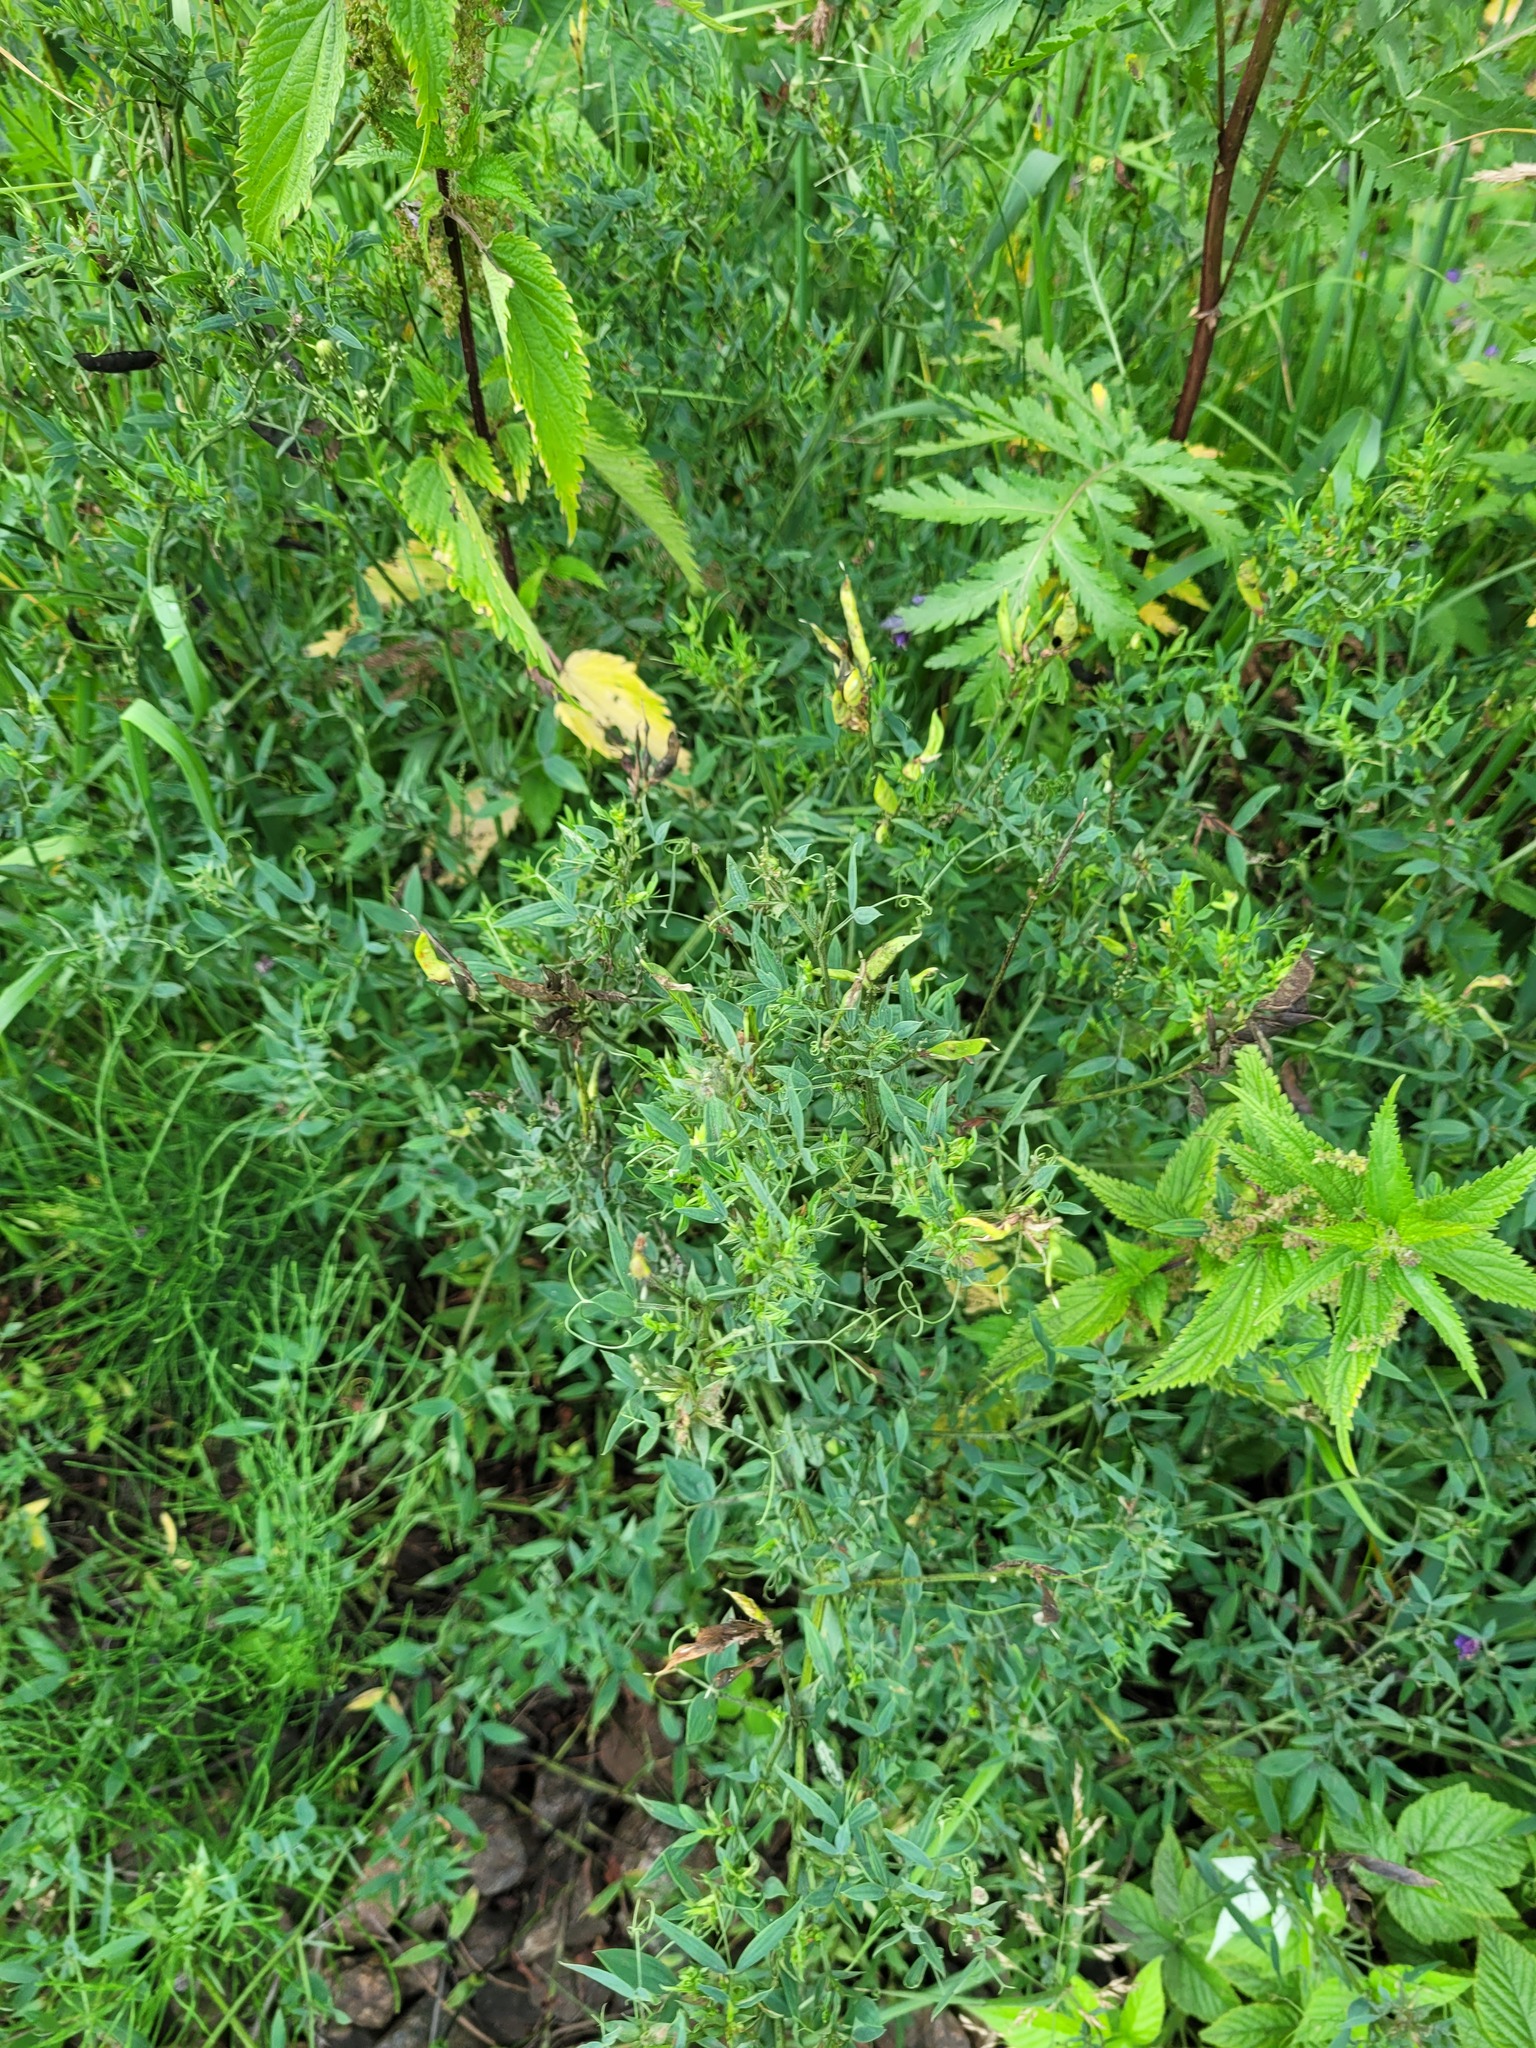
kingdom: Plantae
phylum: Tracheophyta
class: Magnoliopsida
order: Fabales
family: Fabaceae
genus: Lathyrus
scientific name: Lathyrus pratensis
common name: Meadow vetchling
